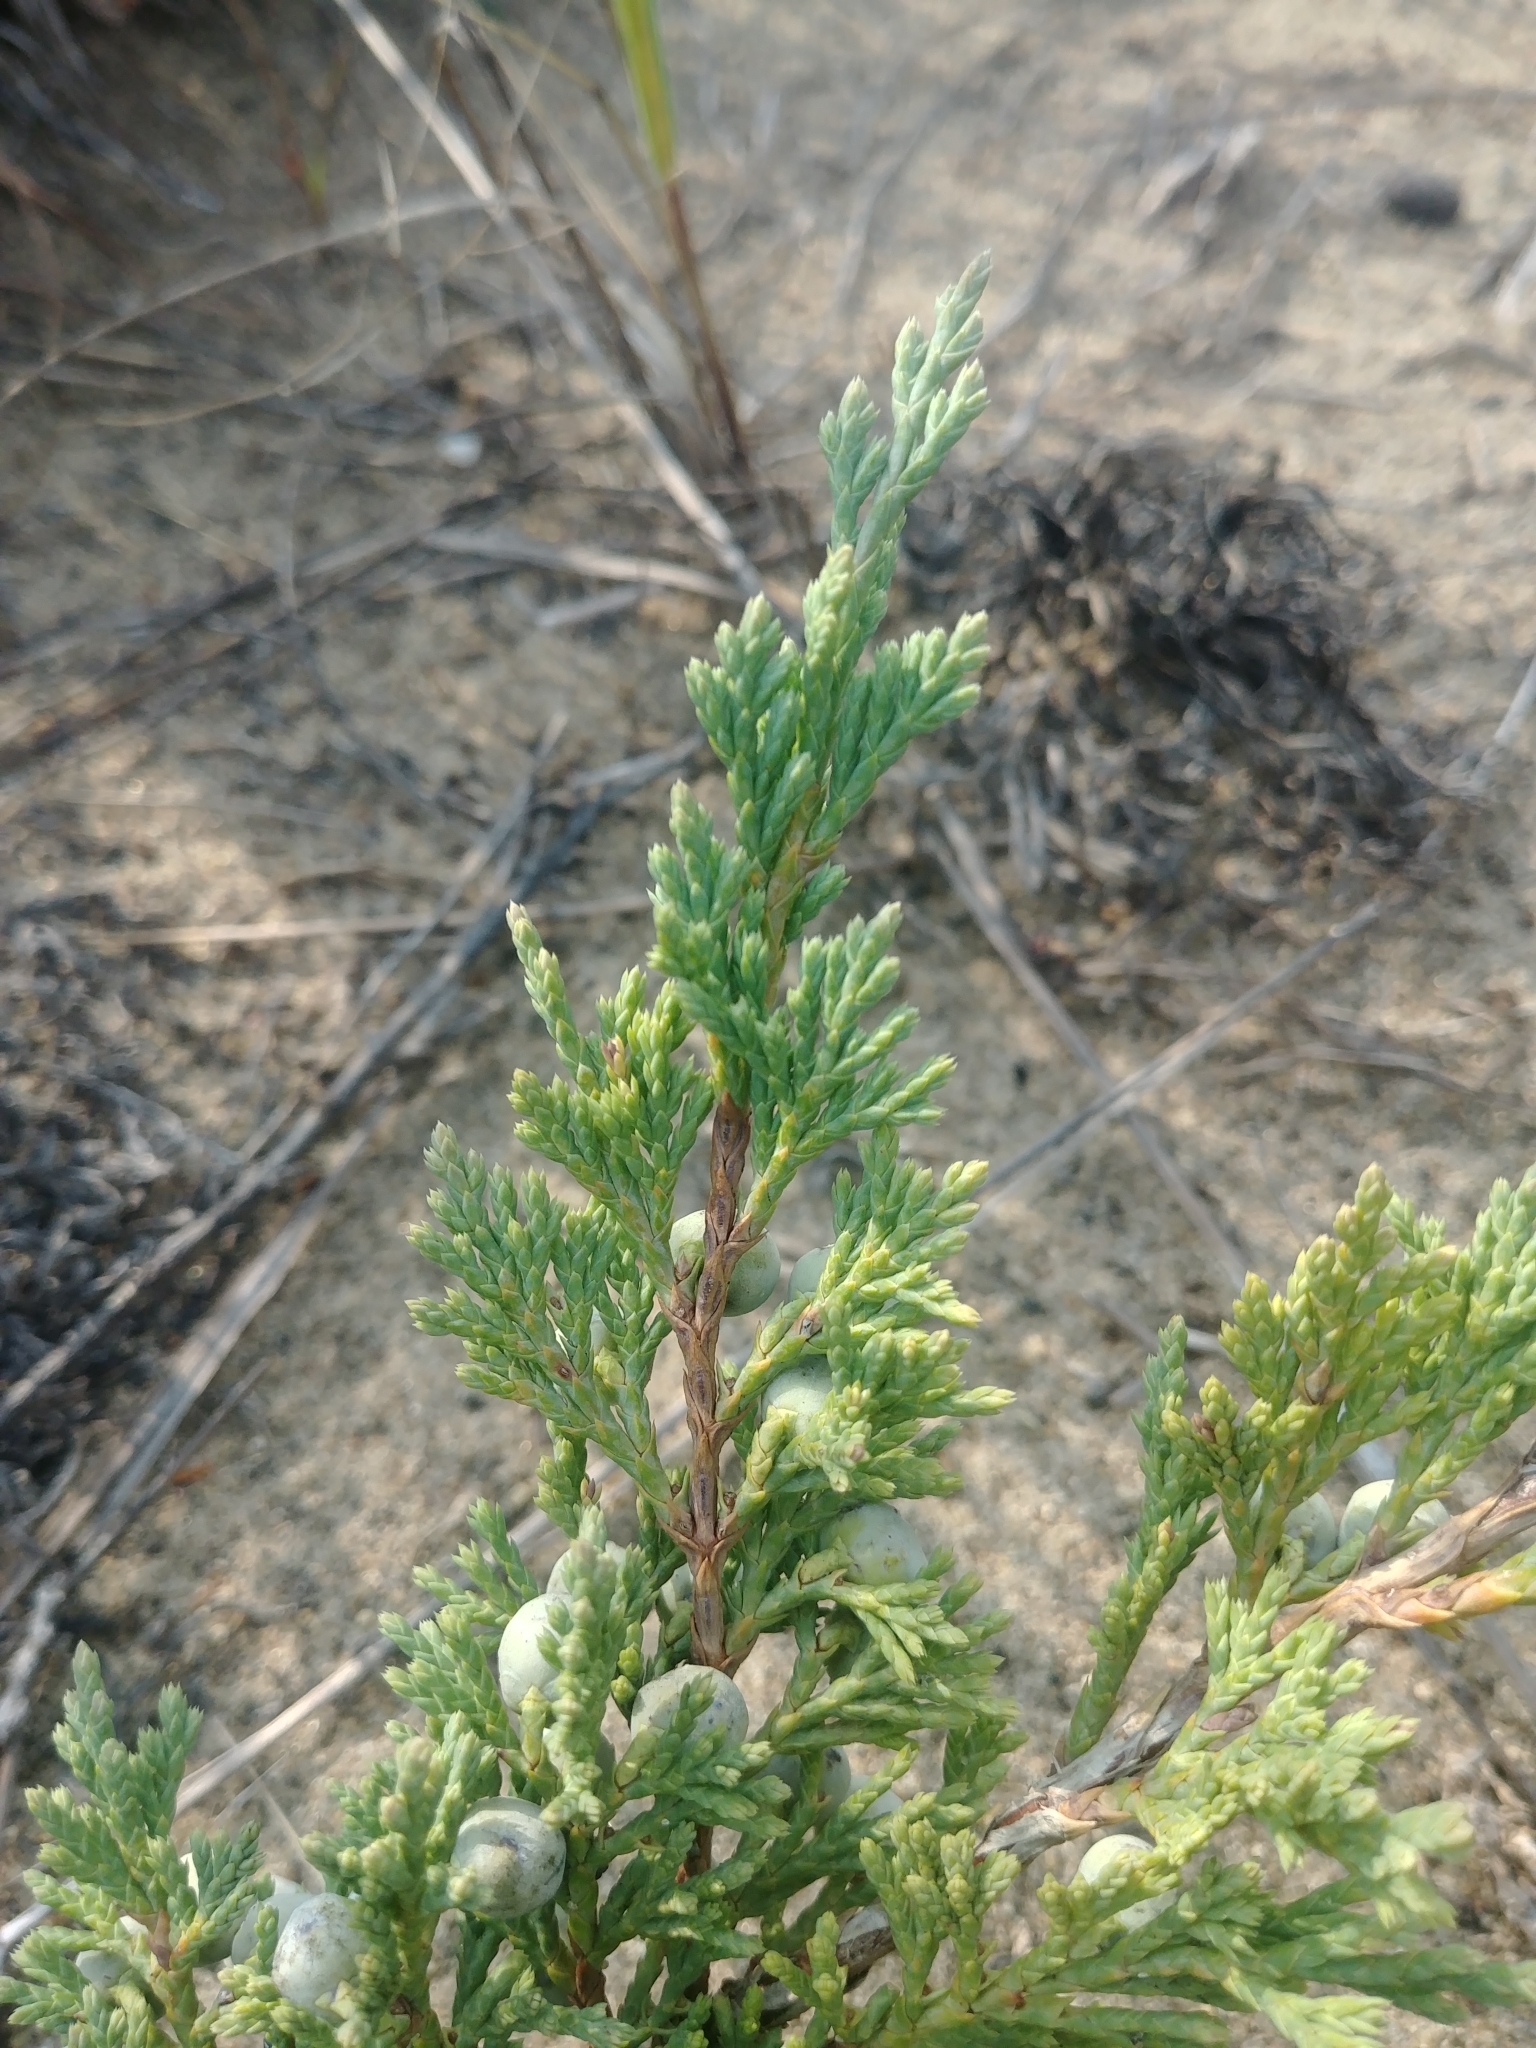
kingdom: Plantae
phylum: Tracheophyta
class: Pinopsida
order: Pinales
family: Cupressaceae
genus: Juniperus
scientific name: Juniperus horizontalis
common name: Creeping juniper
